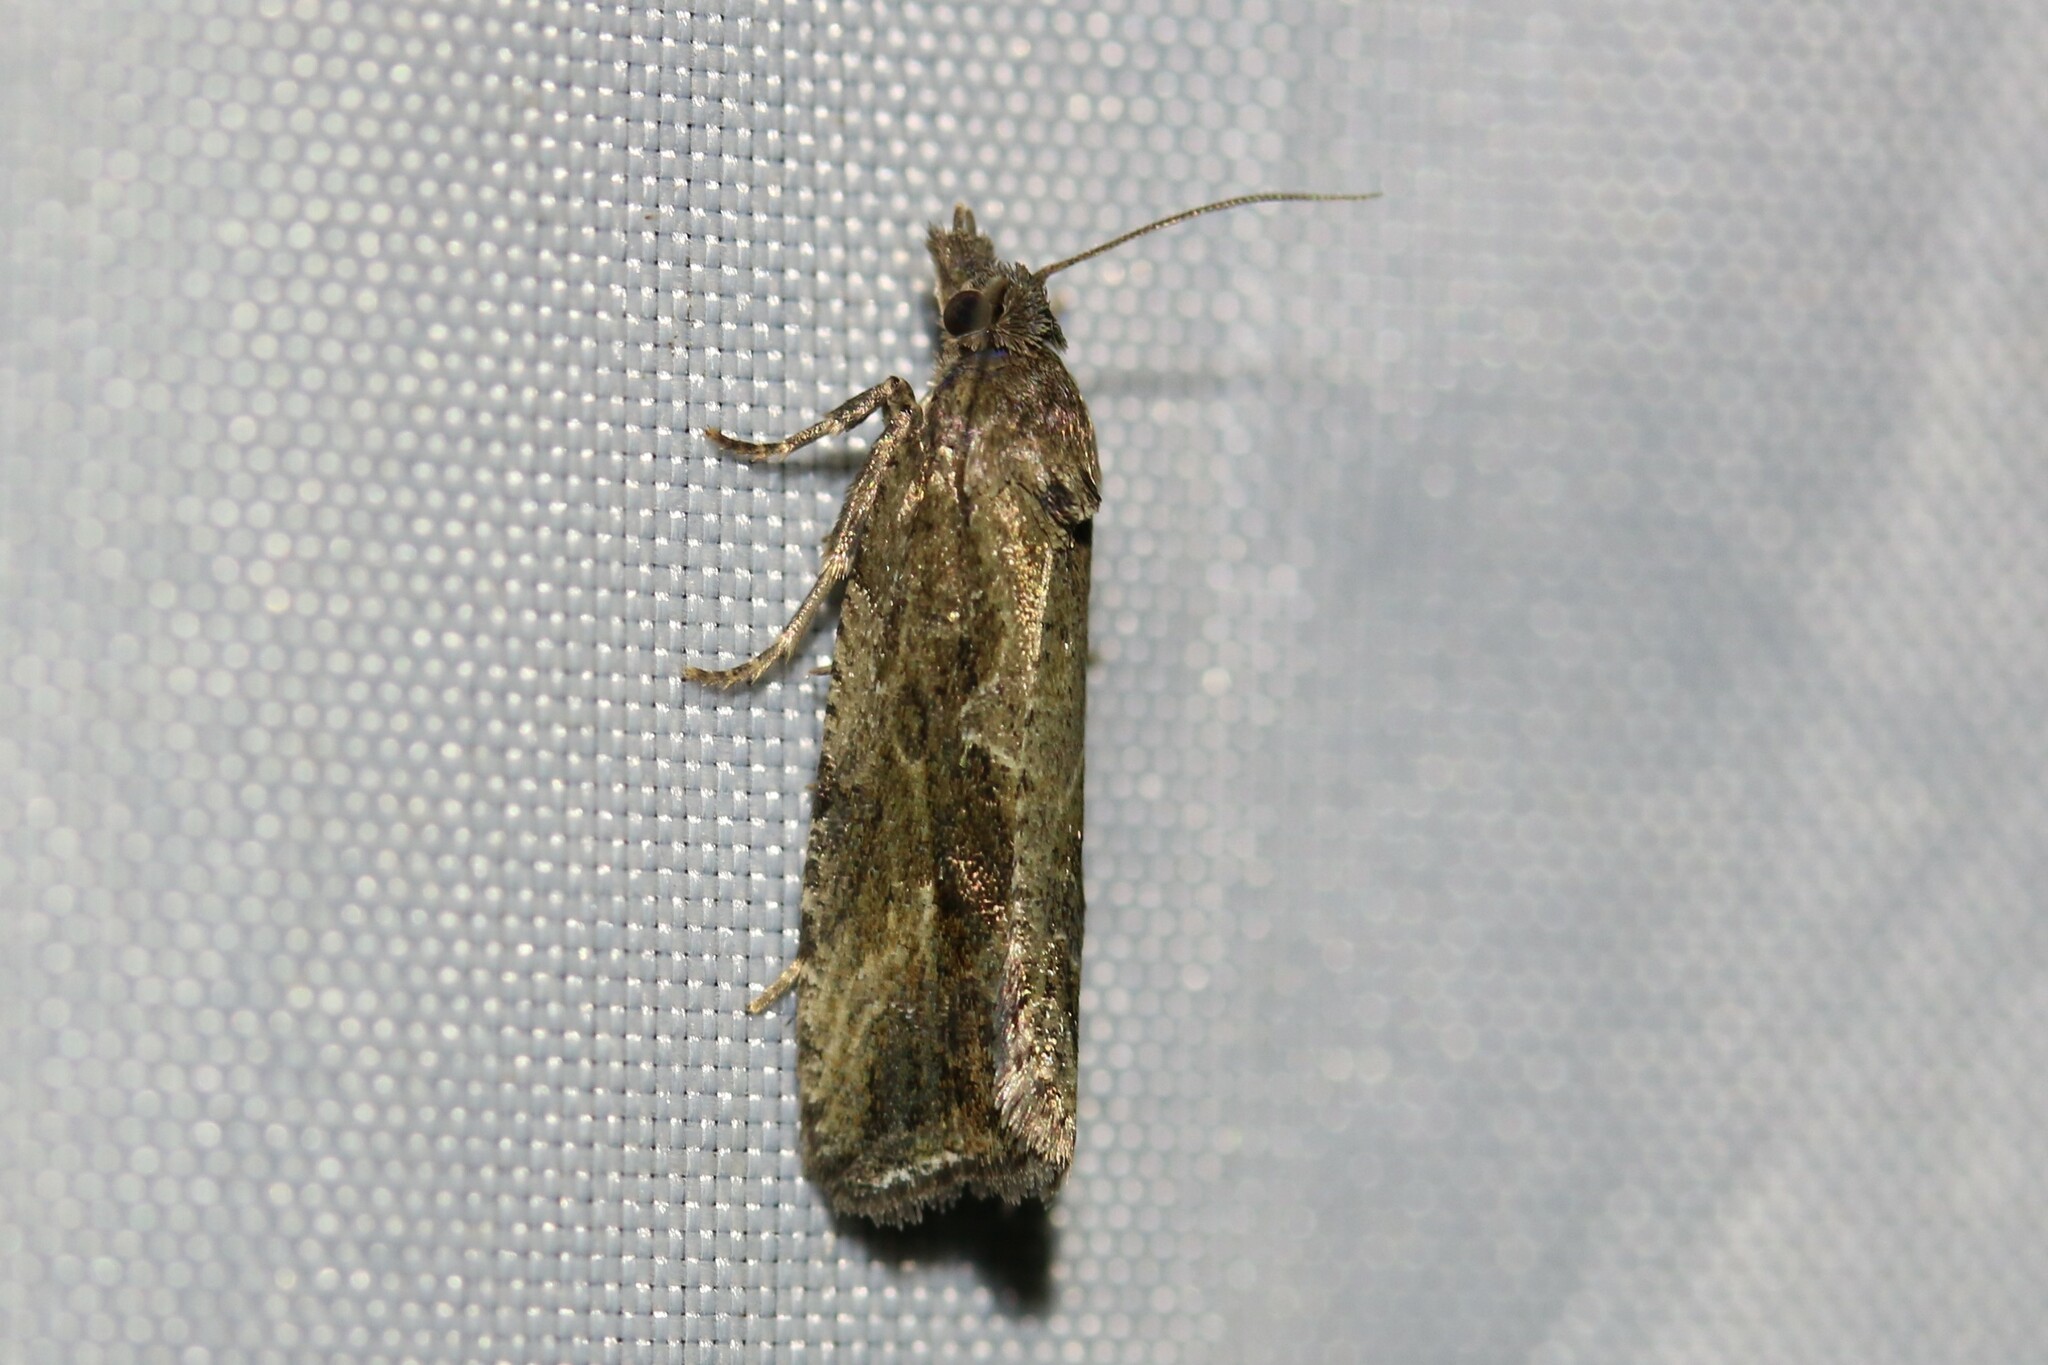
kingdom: Animalia
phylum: Arthropoda
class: Insecta
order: Lepidoptera
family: Tortricidae
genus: Endothenia
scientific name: Endothenia quadrimaculana
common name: Tortricid moth
